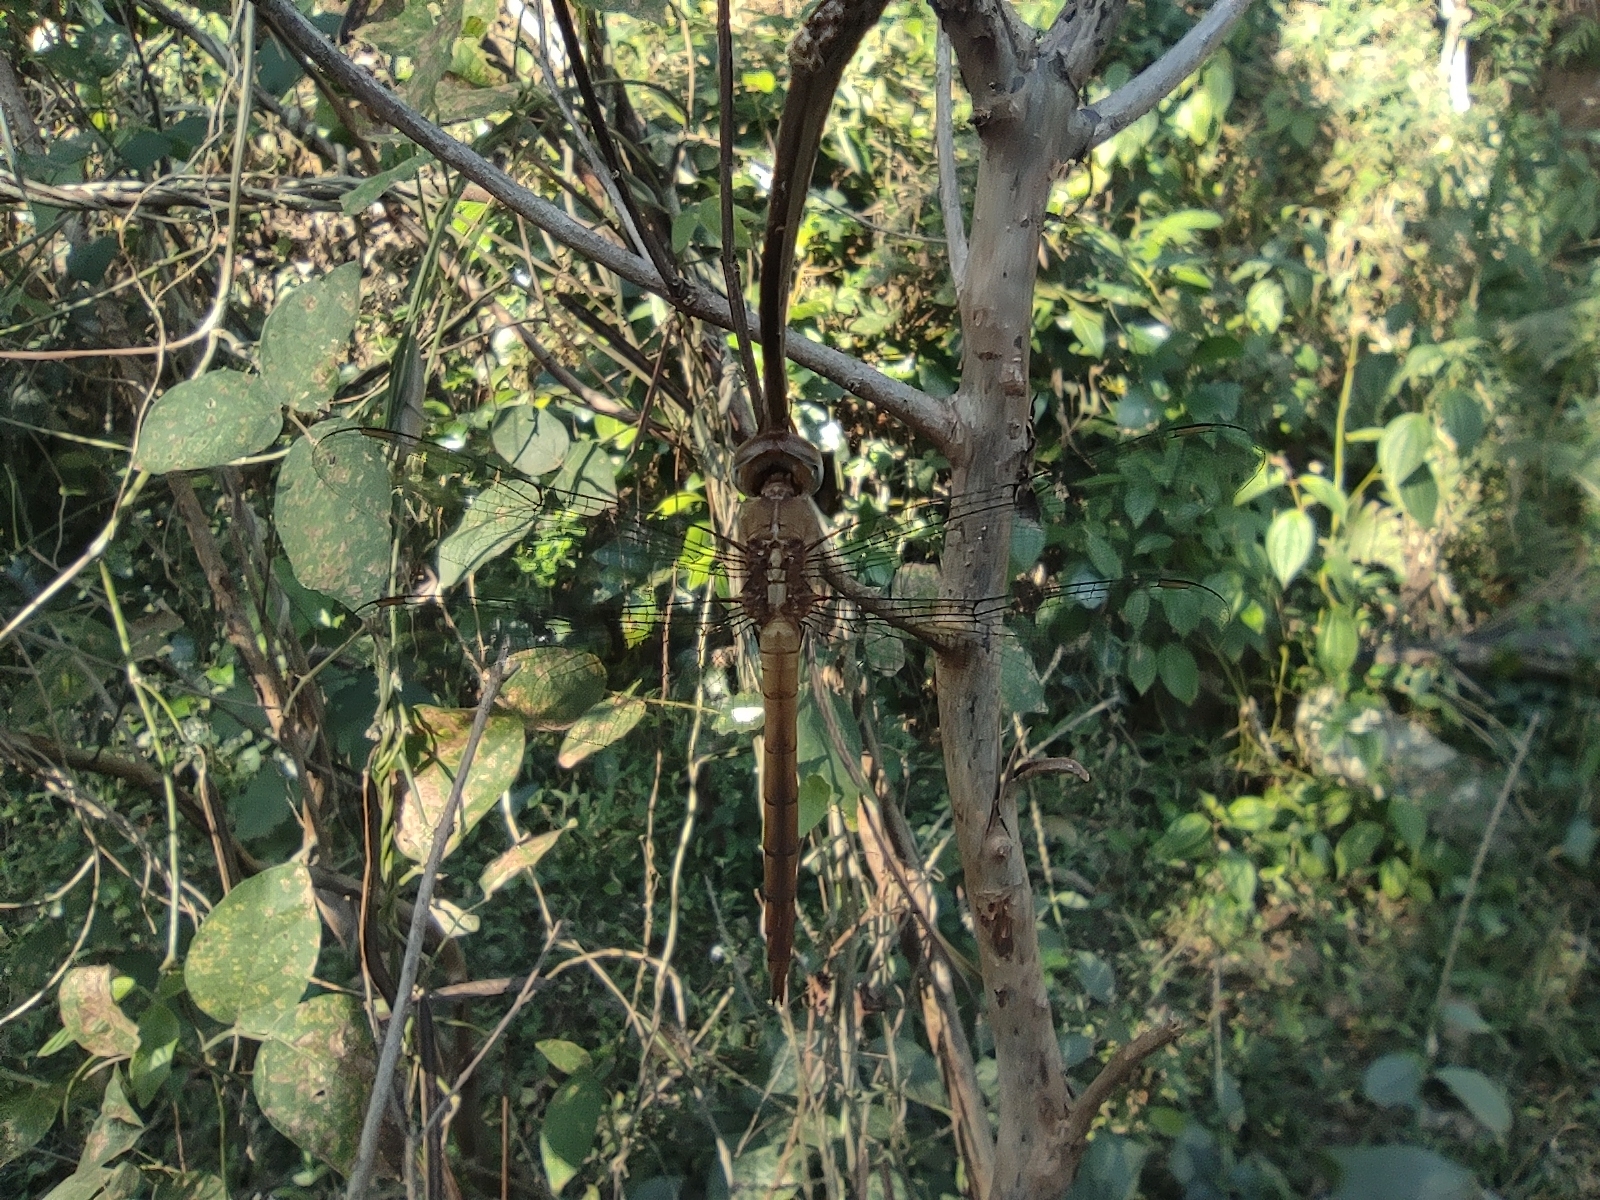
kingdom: Animalia
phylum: Arthropoda
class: Insecta
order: Odonata
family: Libellulidae
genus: Tholymis
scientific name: Tholymis tillarga
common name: Coral-tailed cloud wing
